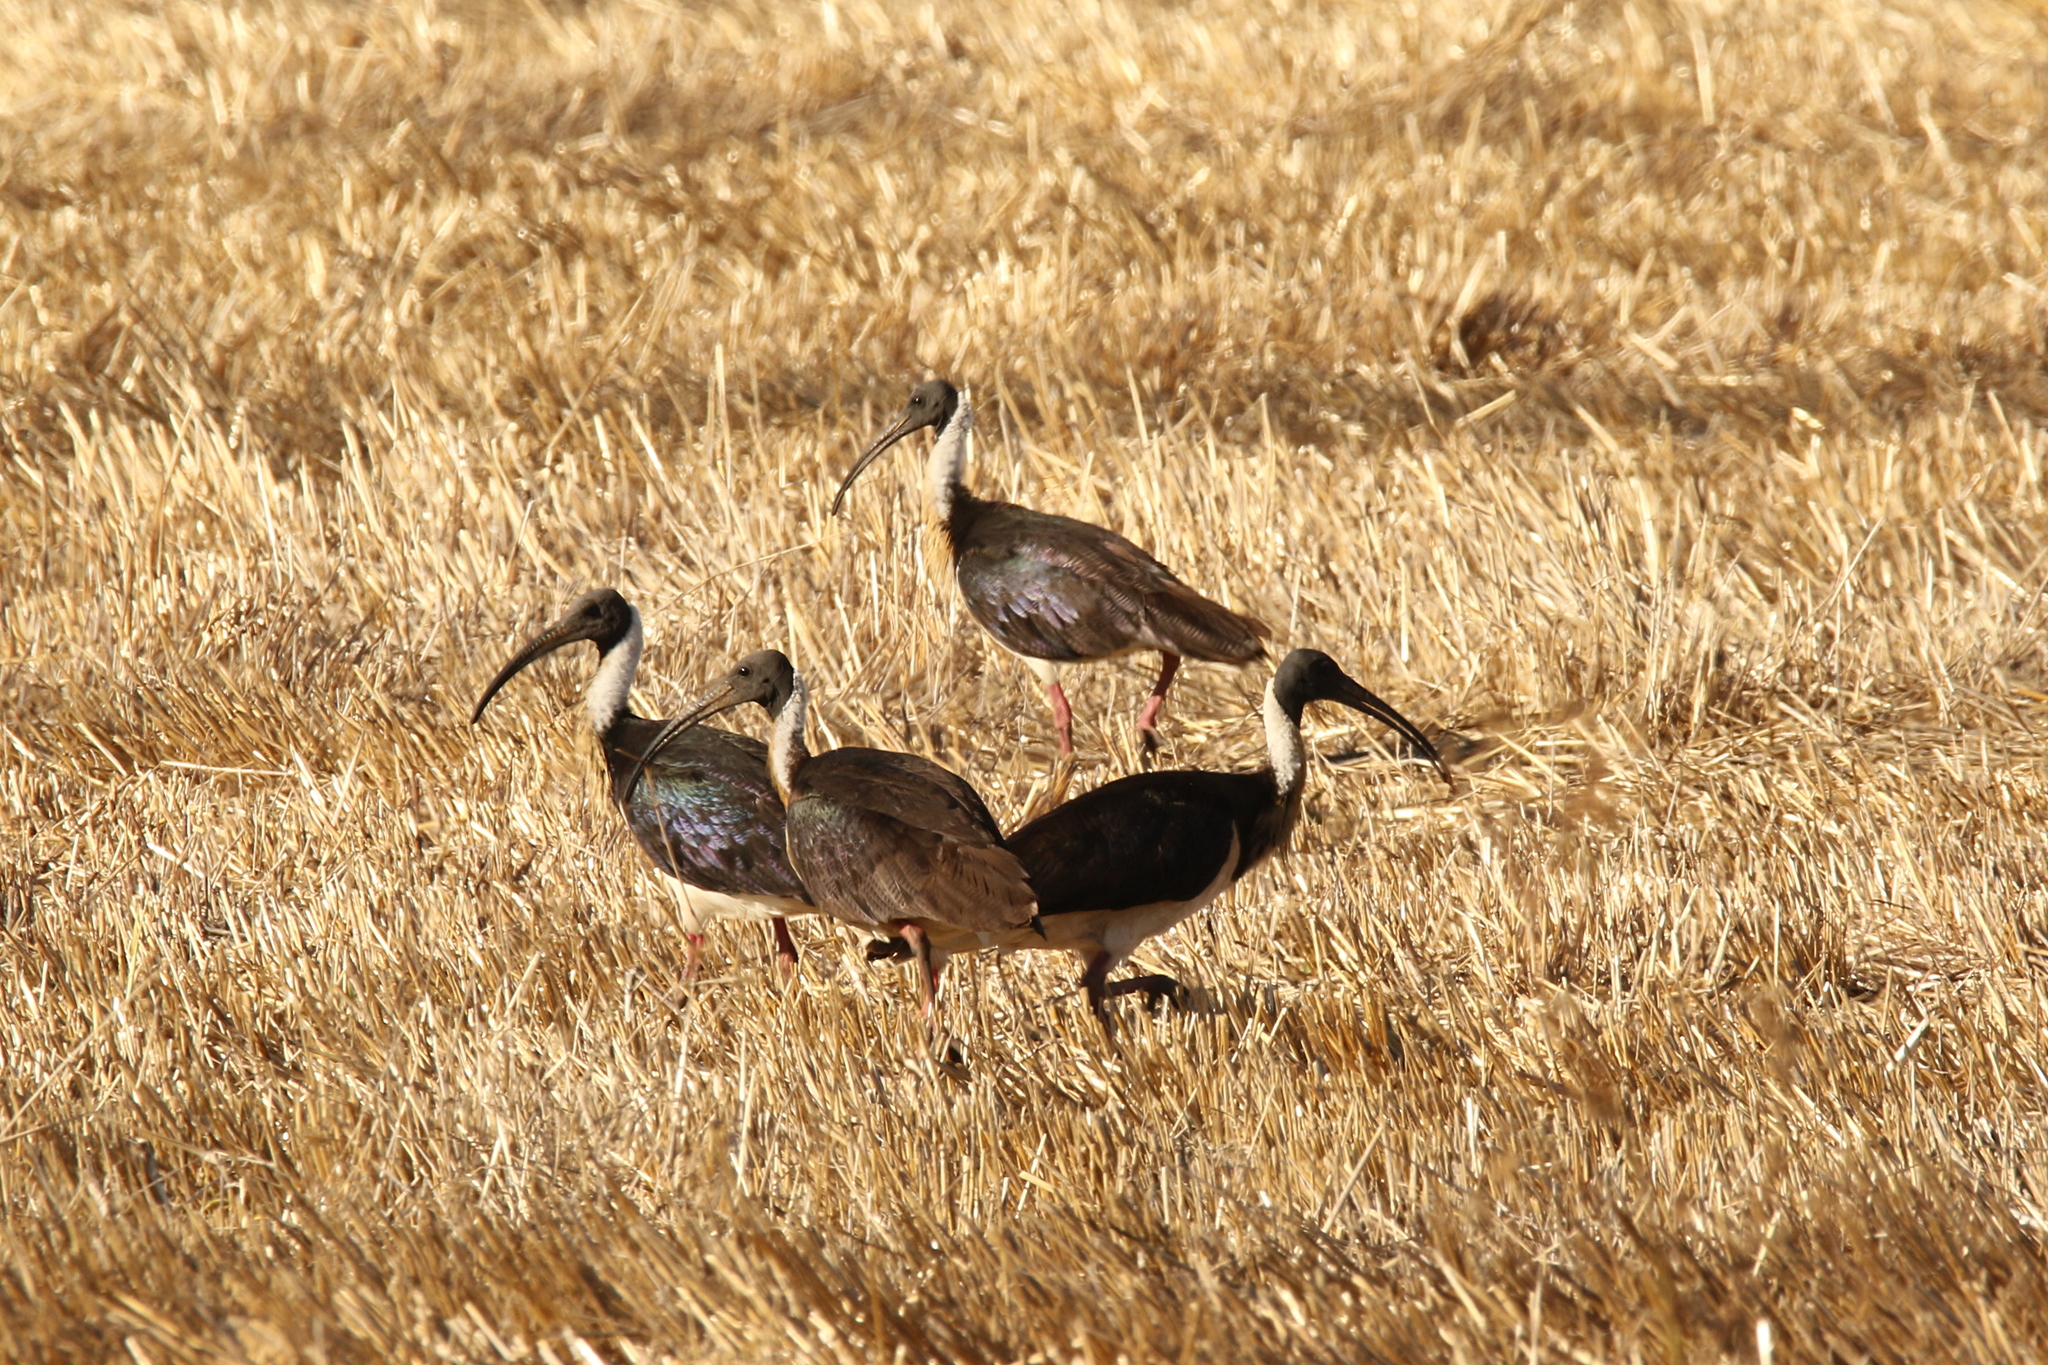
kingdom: Animalia
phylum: Chordata
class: Aves
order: Pelecaniformes
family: Threskiornithidae
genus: Threskiornis
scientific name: Threskiornis spinicollis
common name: Straw-necked ibis
